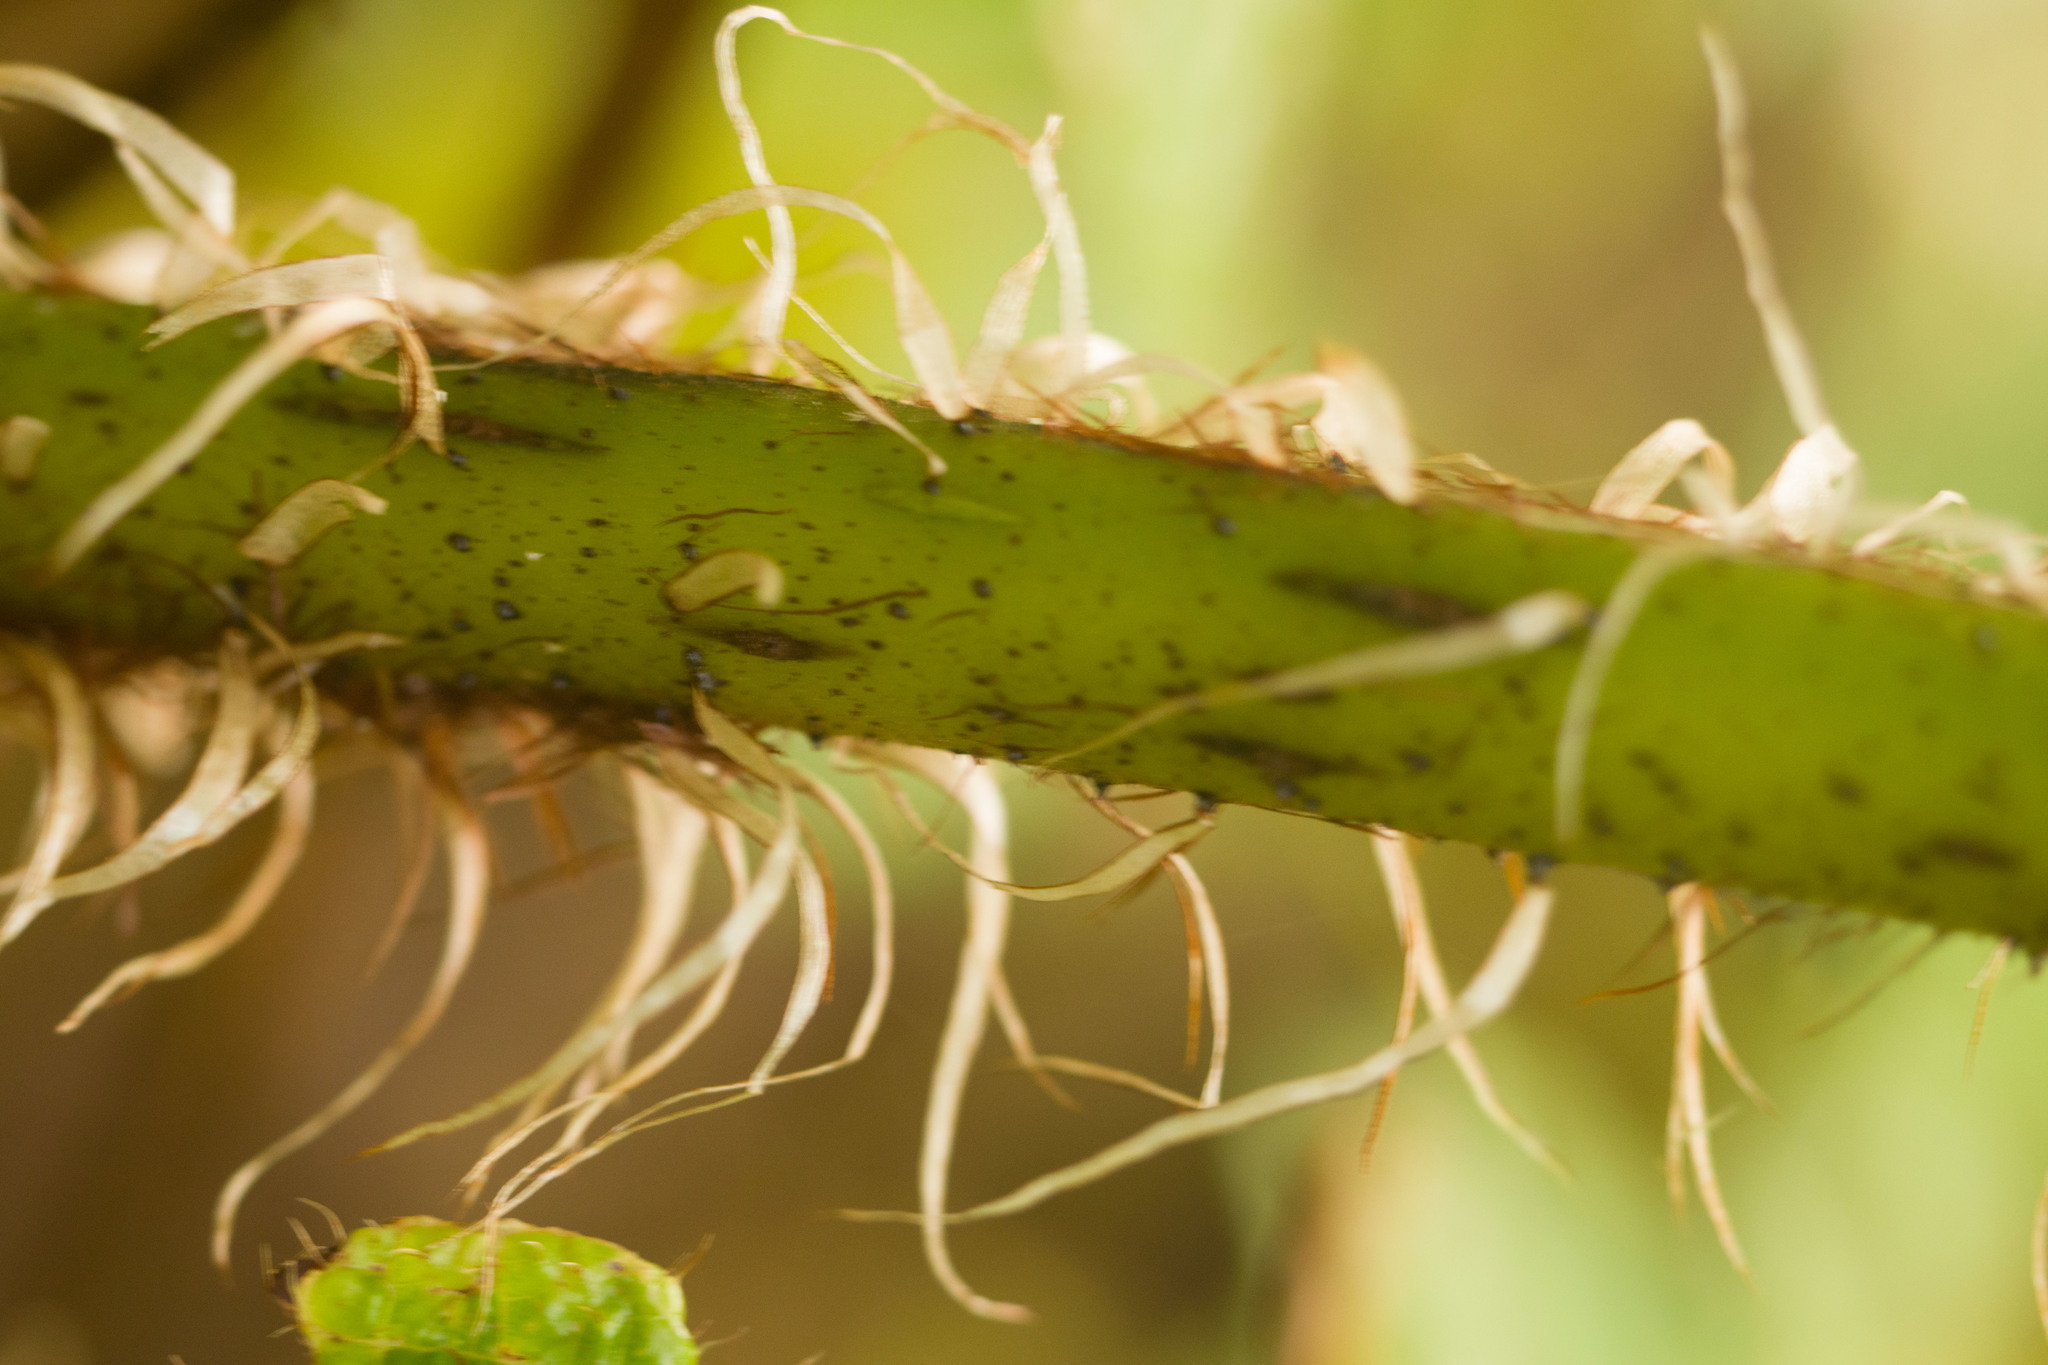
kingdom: Plantae
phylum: Tracheophyta
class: Polypodiopsida
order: Cyatheales
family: Cyatheaceae
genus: Sphaeropteris
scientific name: Sphaeropteris cooperi
